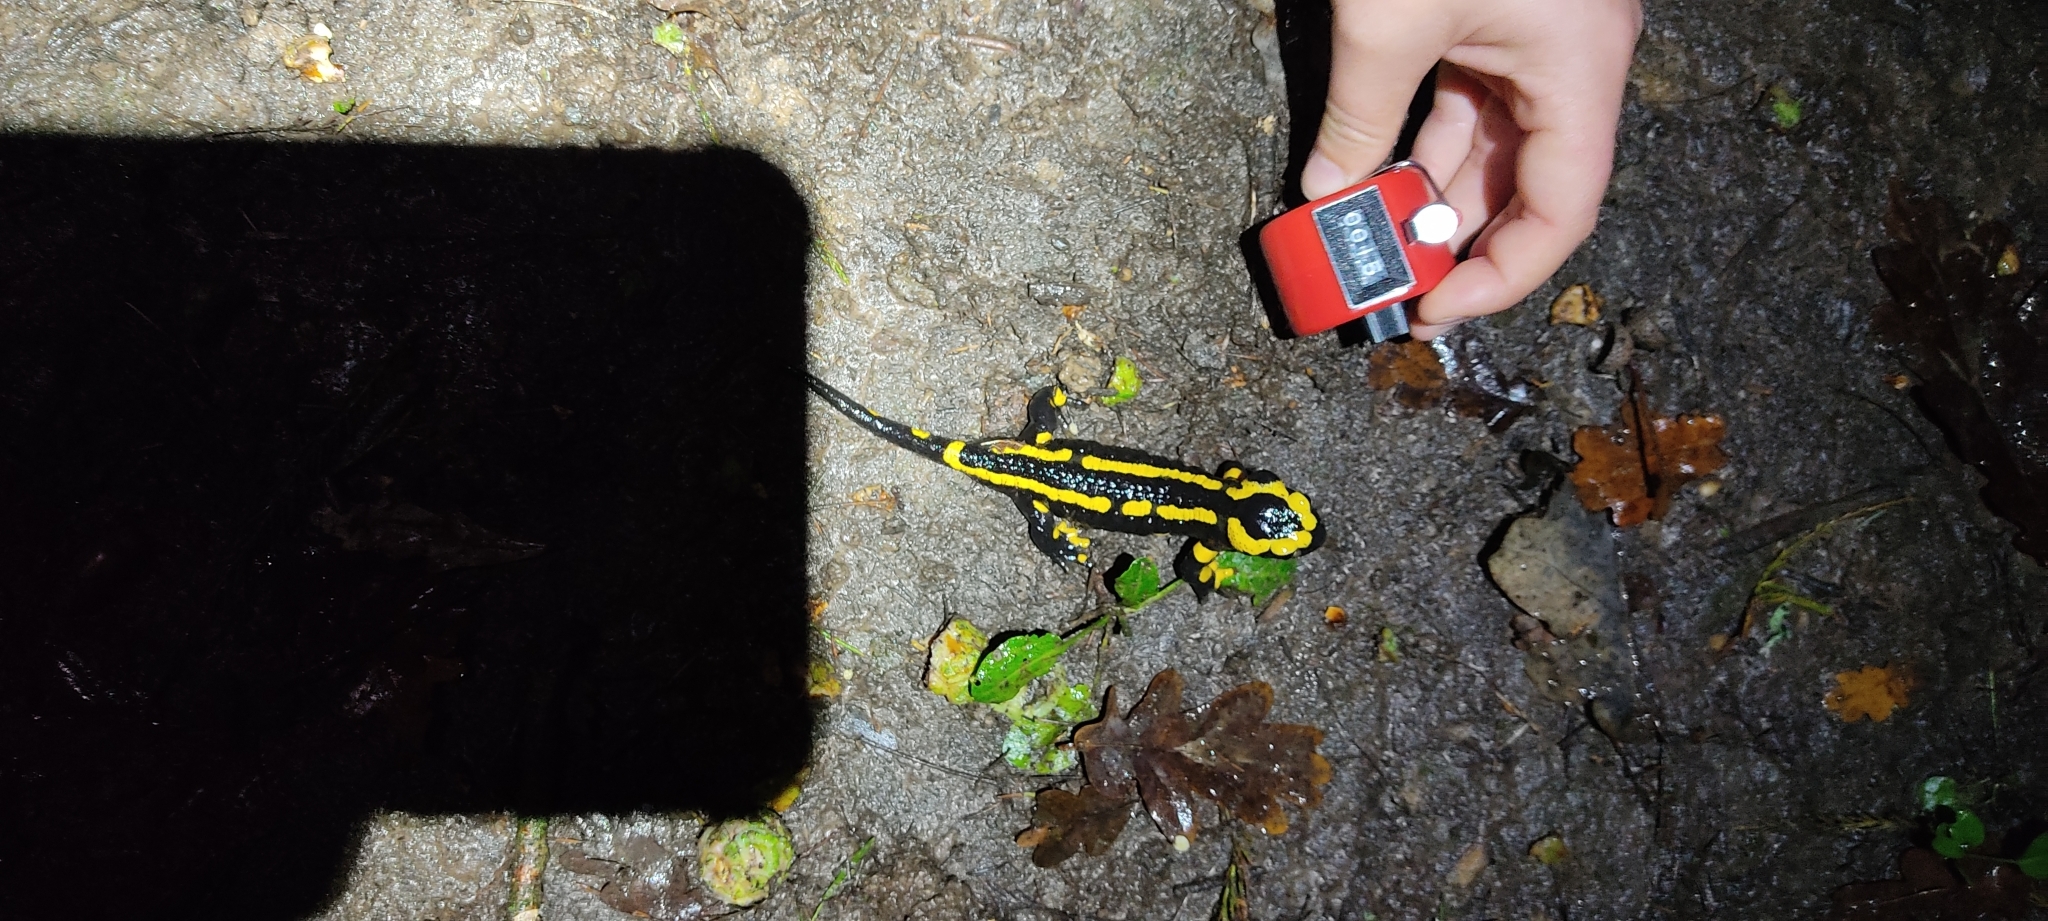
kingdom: Animalia
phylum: Chordata
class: Amphibia
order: Caudata
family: Salamandridae
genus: Salamandra
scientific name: Salamandra salamandra
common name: Fire salamander
